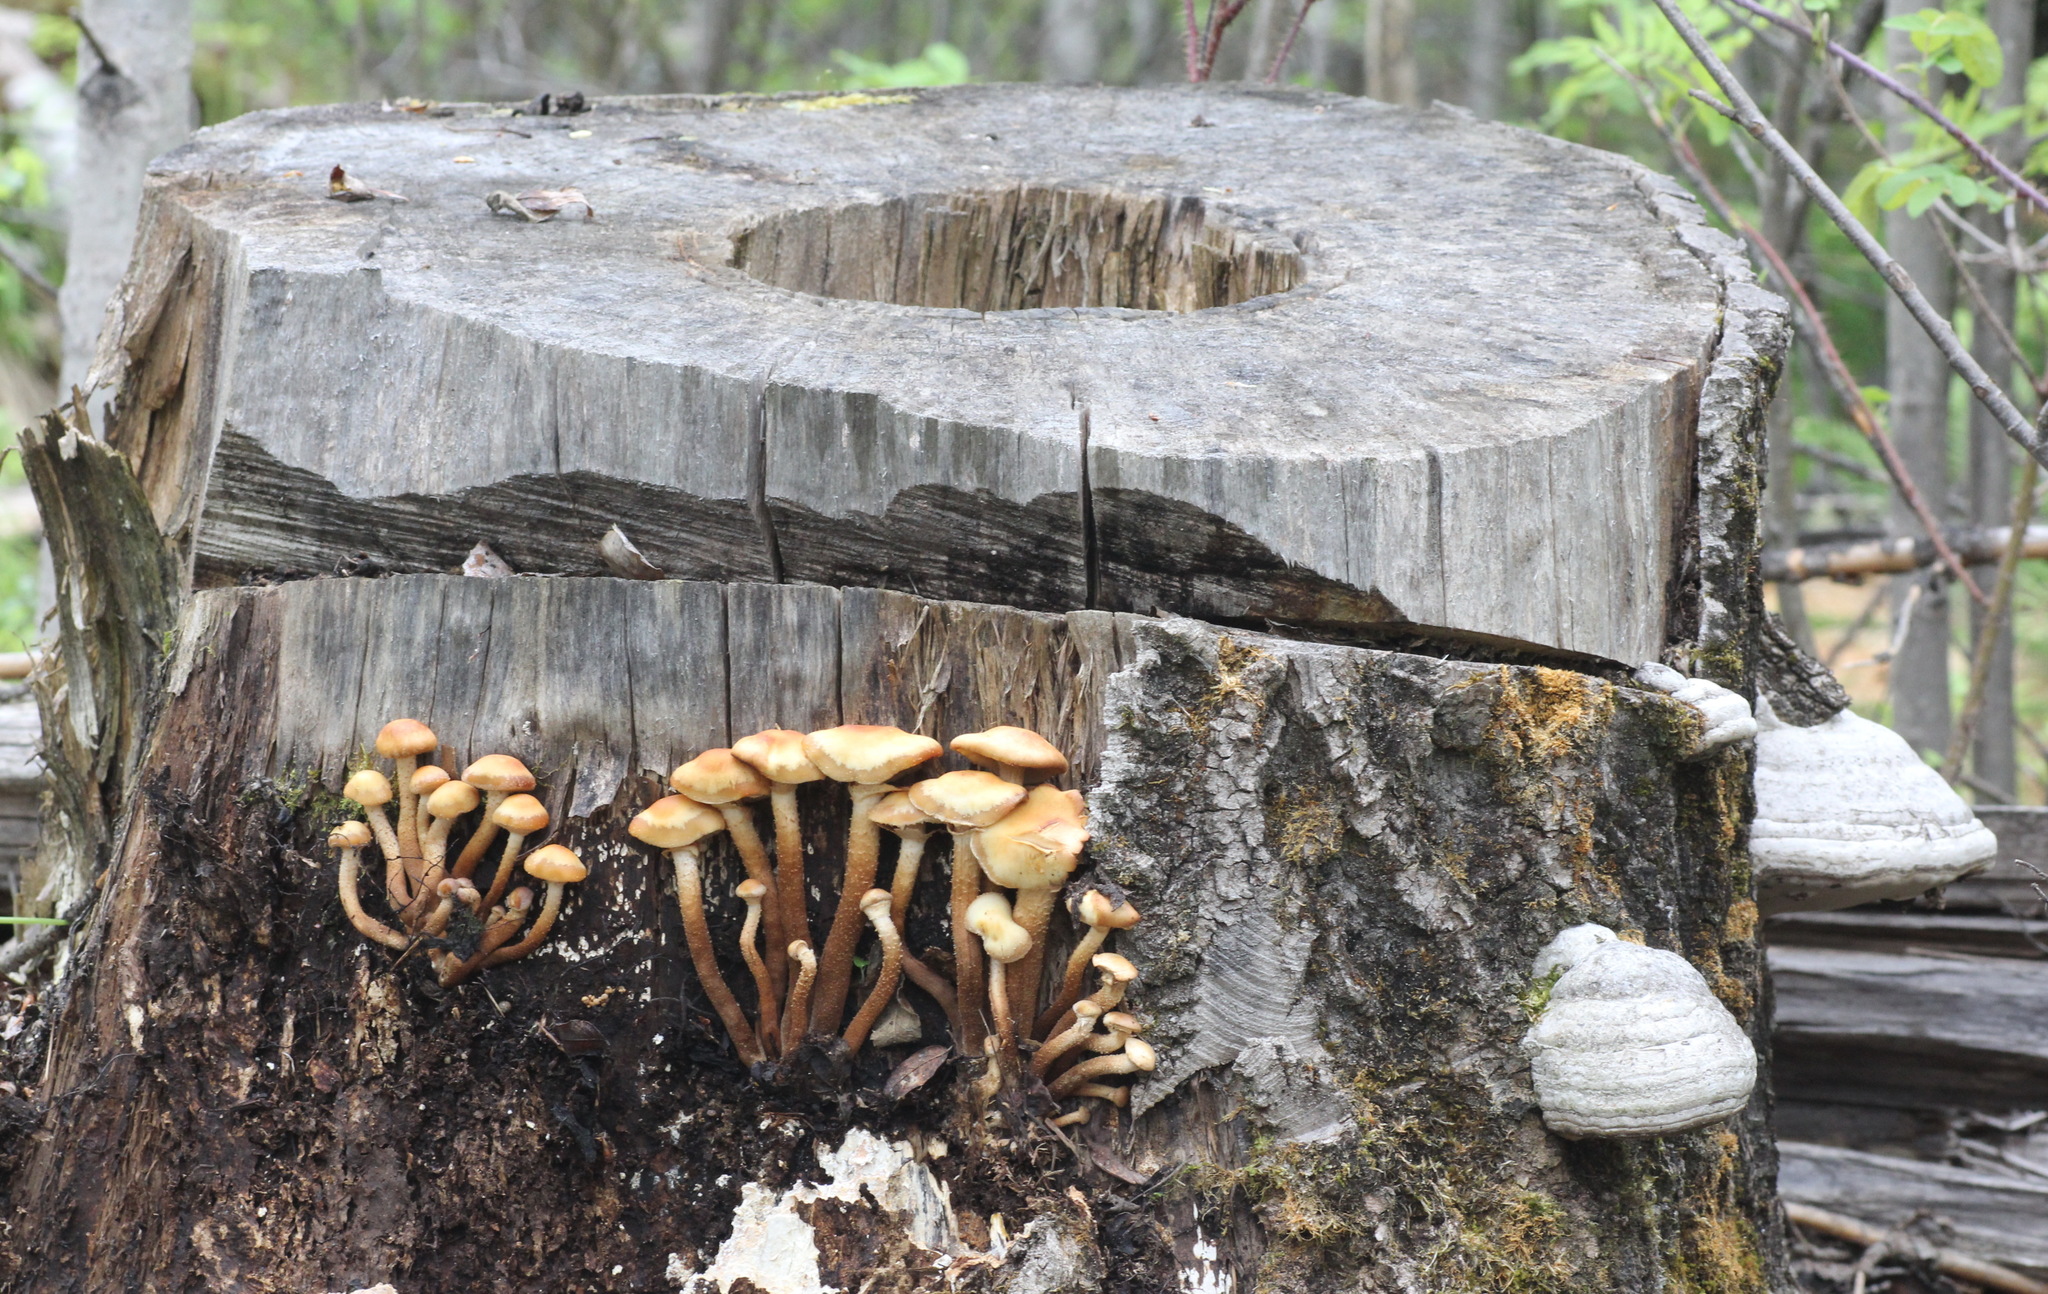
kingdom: Fungi
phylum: Basidiomycota
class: Agaricomycetes
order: Agaricales
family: Strophariaceae
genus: Kuehneromyces
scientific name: Kuehneromyces mutabilis
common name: Sheathed woodtuft
